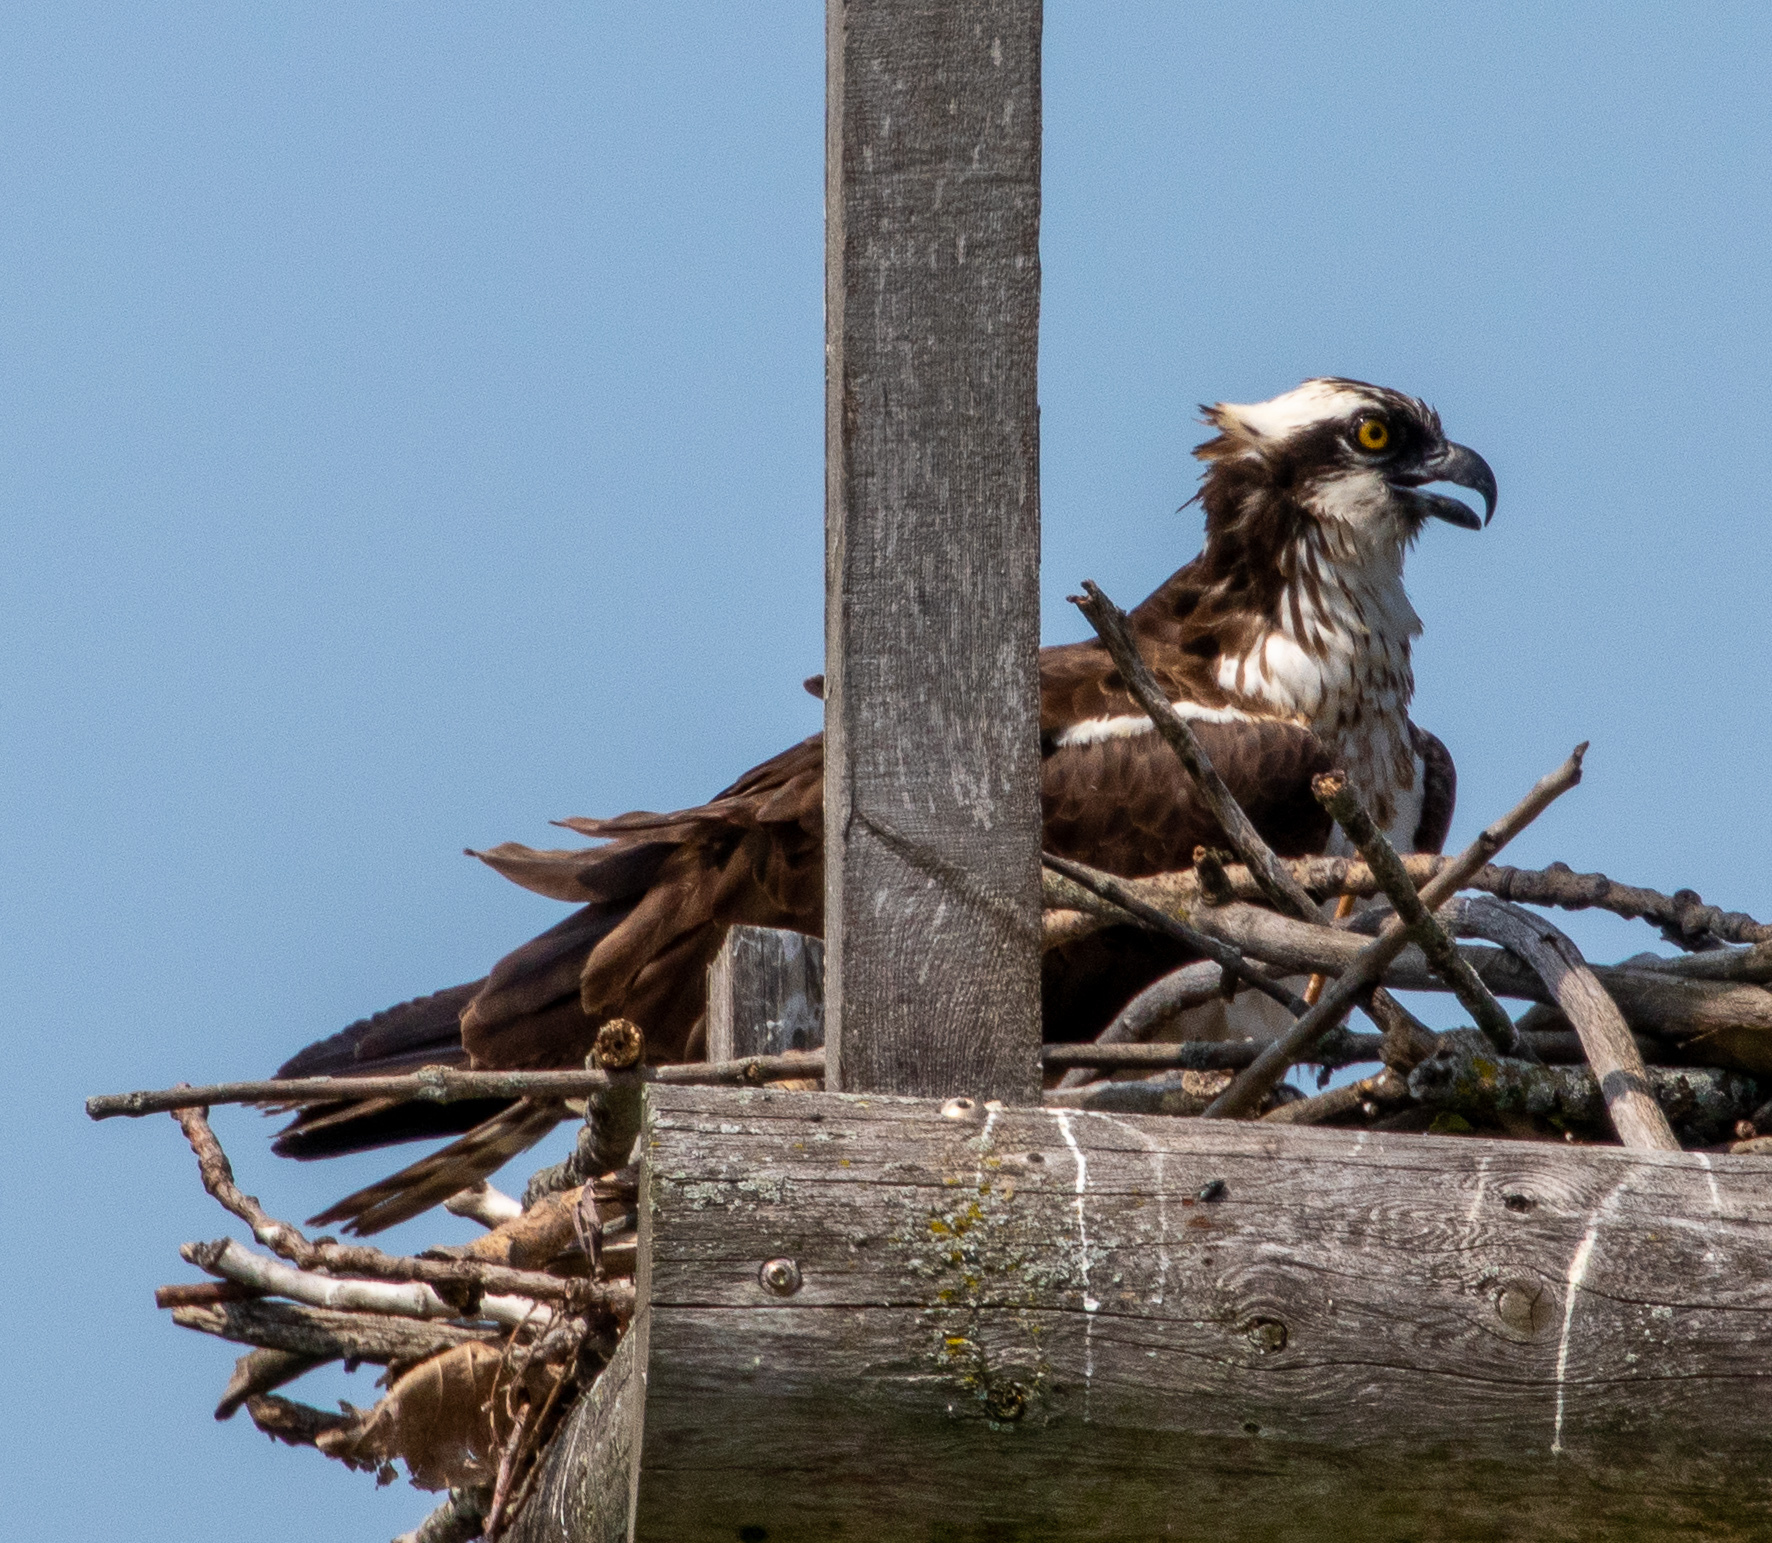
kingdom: Animalia
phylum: Chordata
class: Aves
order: Accipitriformes
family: Pandionidae
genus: Pandion
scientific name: Pandion haliaetus
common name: Osprey
